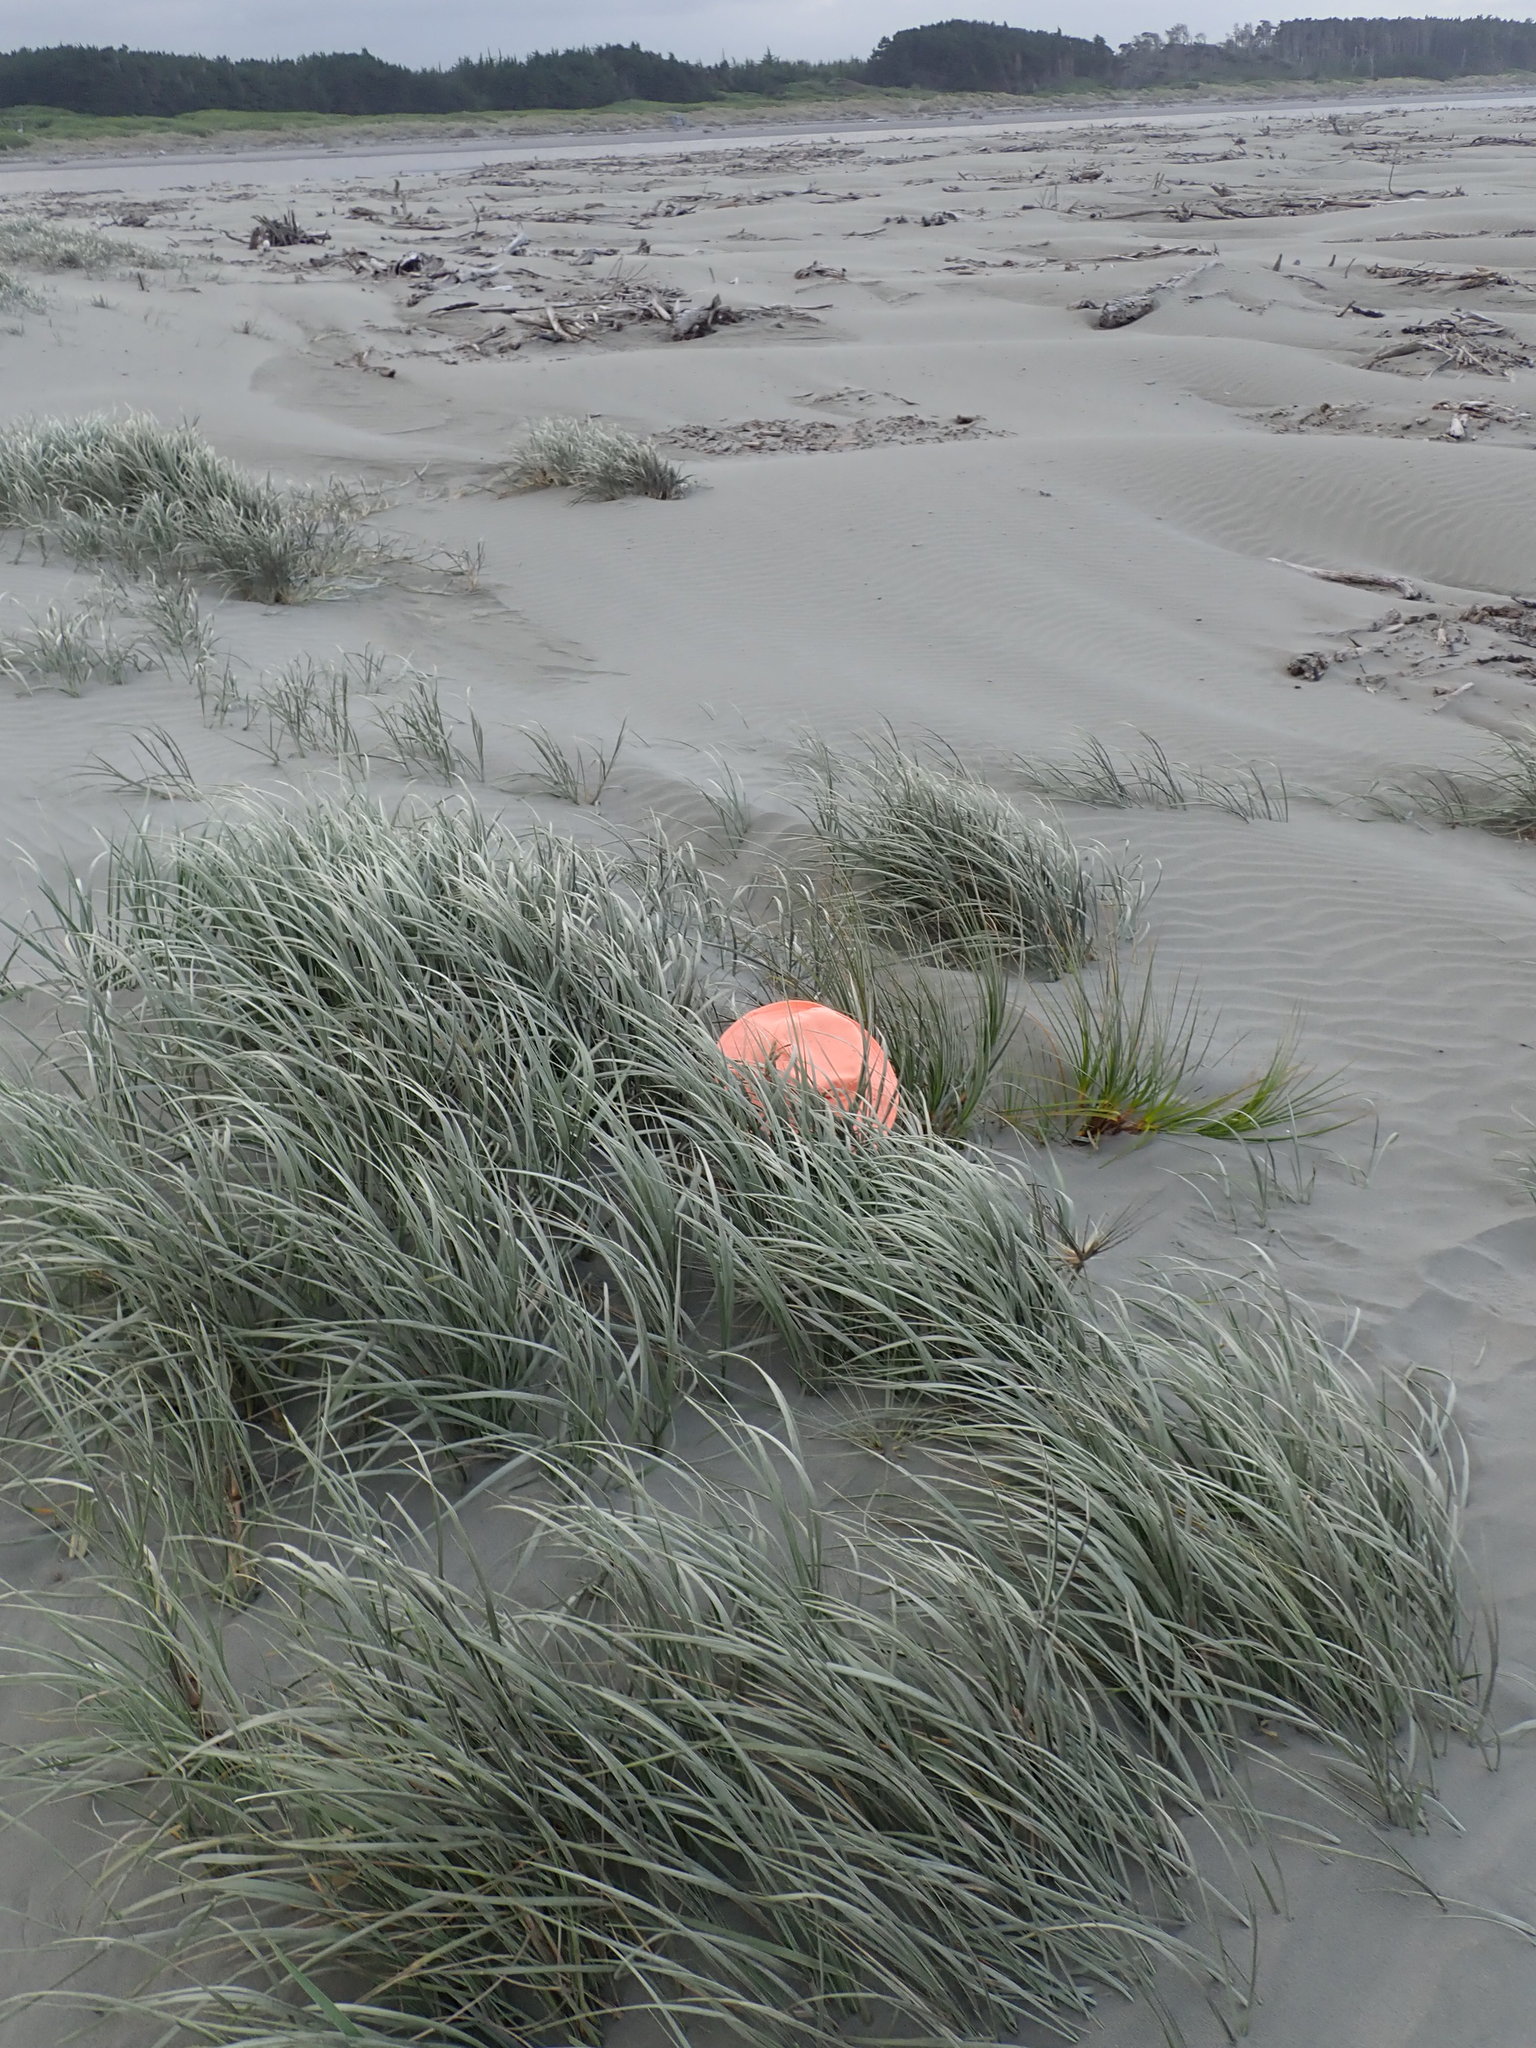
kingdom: Plantae
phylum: Tracheophyta
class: Liliopsida
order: Poales
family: Cyperaceae
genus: Ficinia
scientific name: Ficinia spiralis
